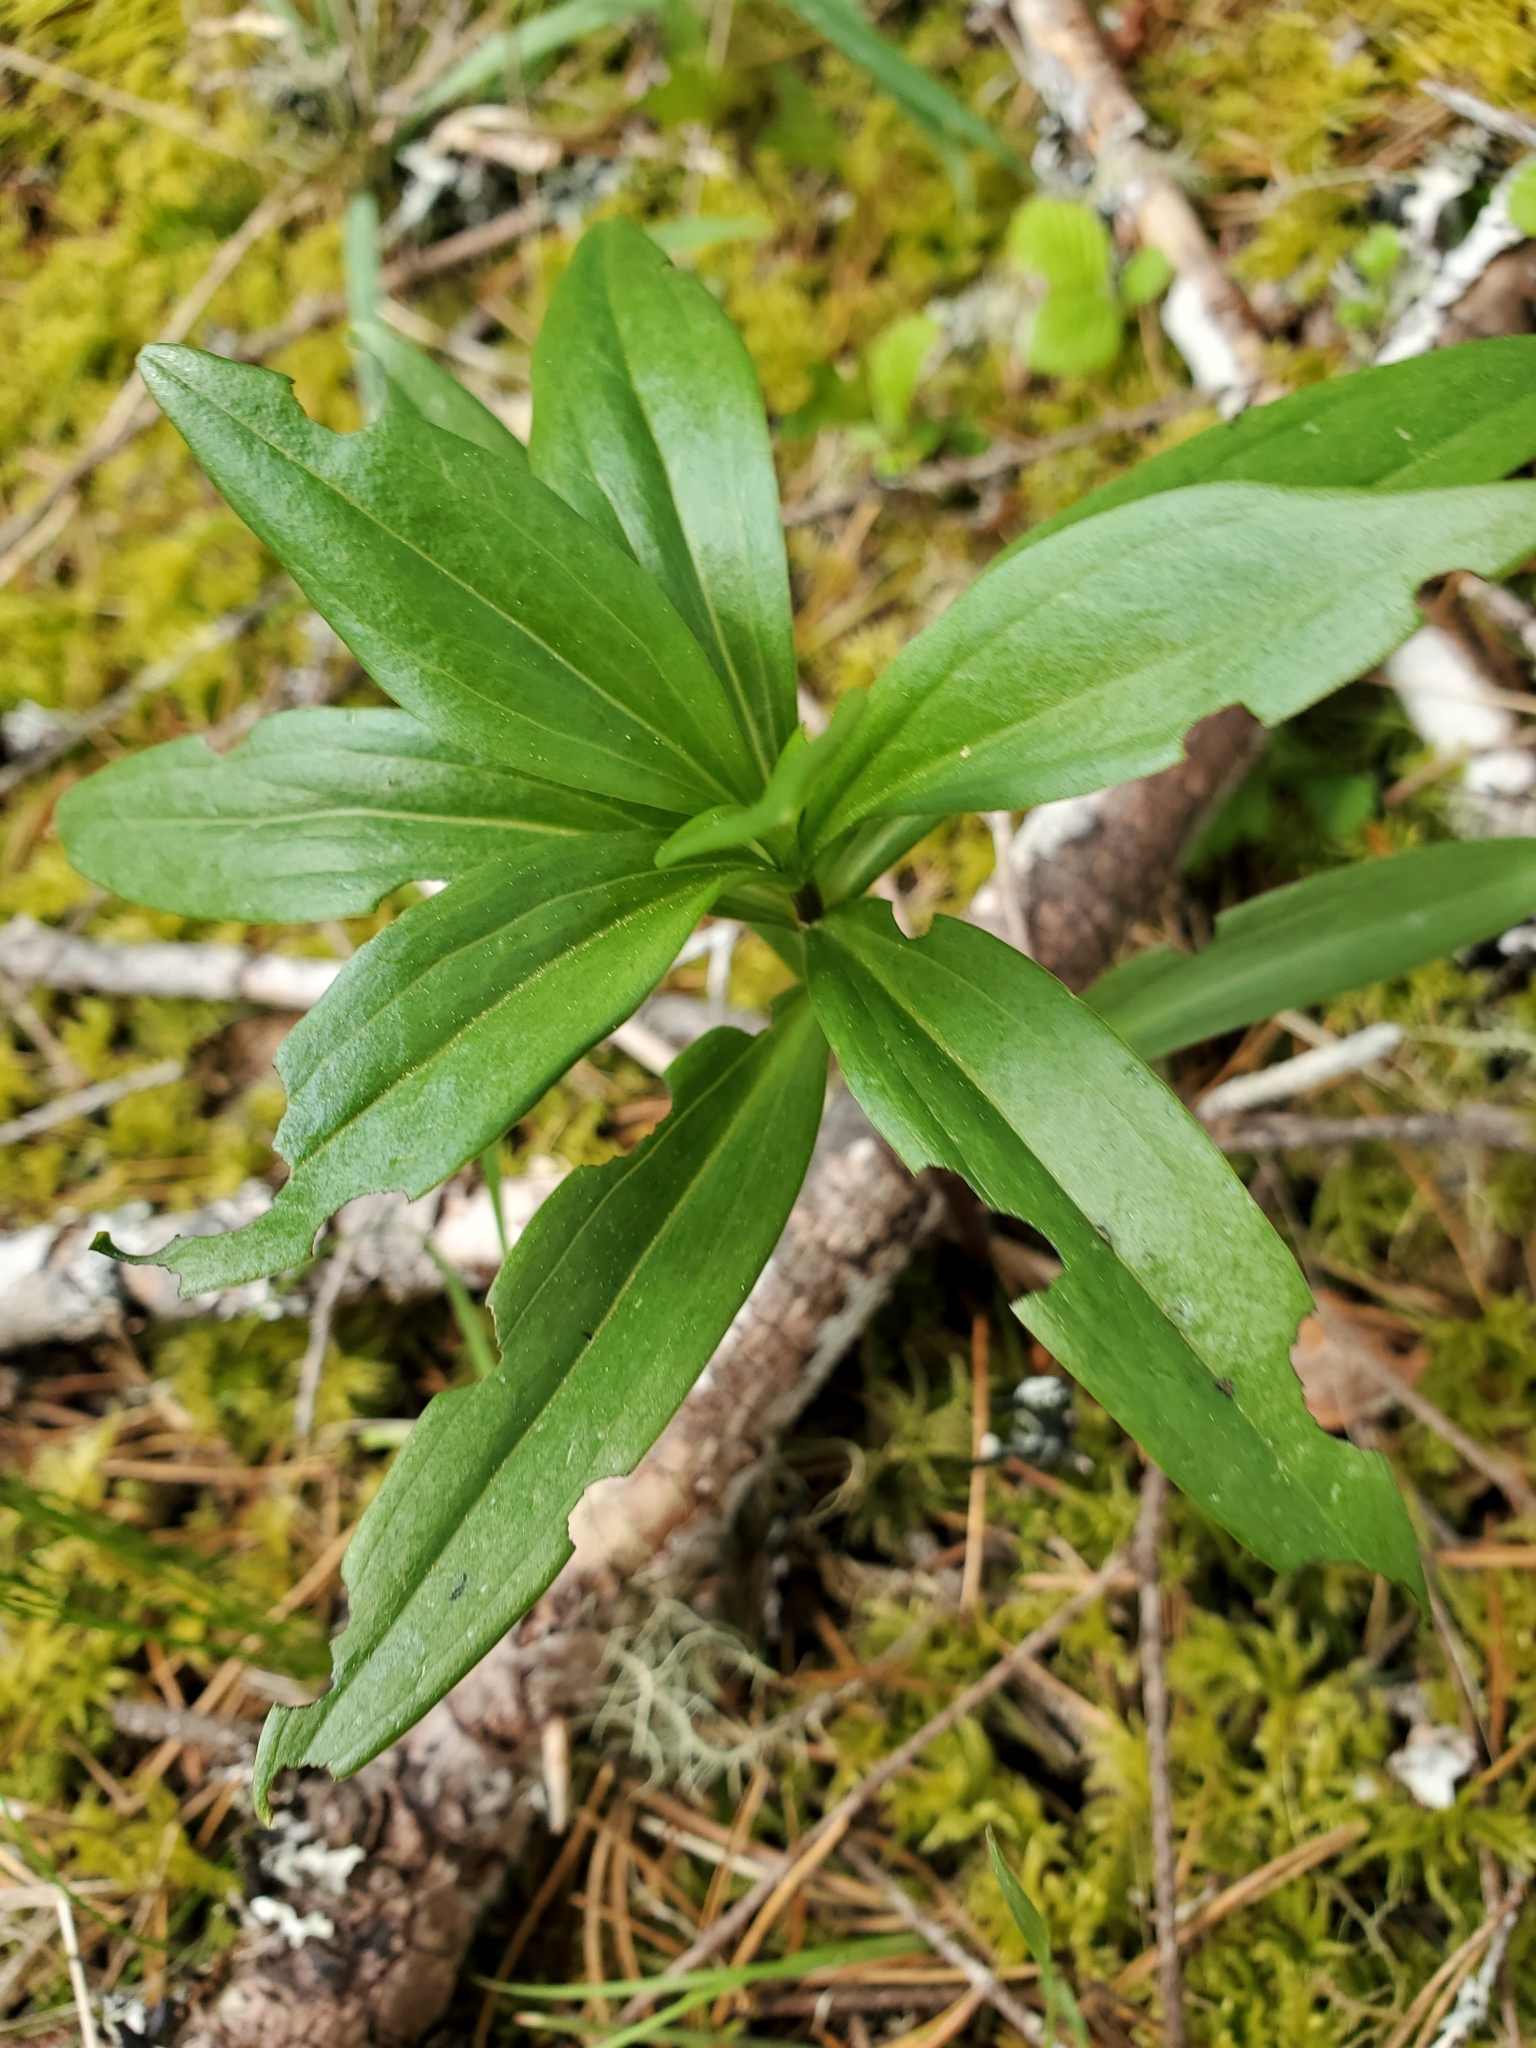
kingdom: Plantae
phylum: Tracheophyta
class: Liliopsida
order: Liliales
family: Liliaceae
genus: Lilium
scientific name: Lilium columbianum
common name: Columbia lily
